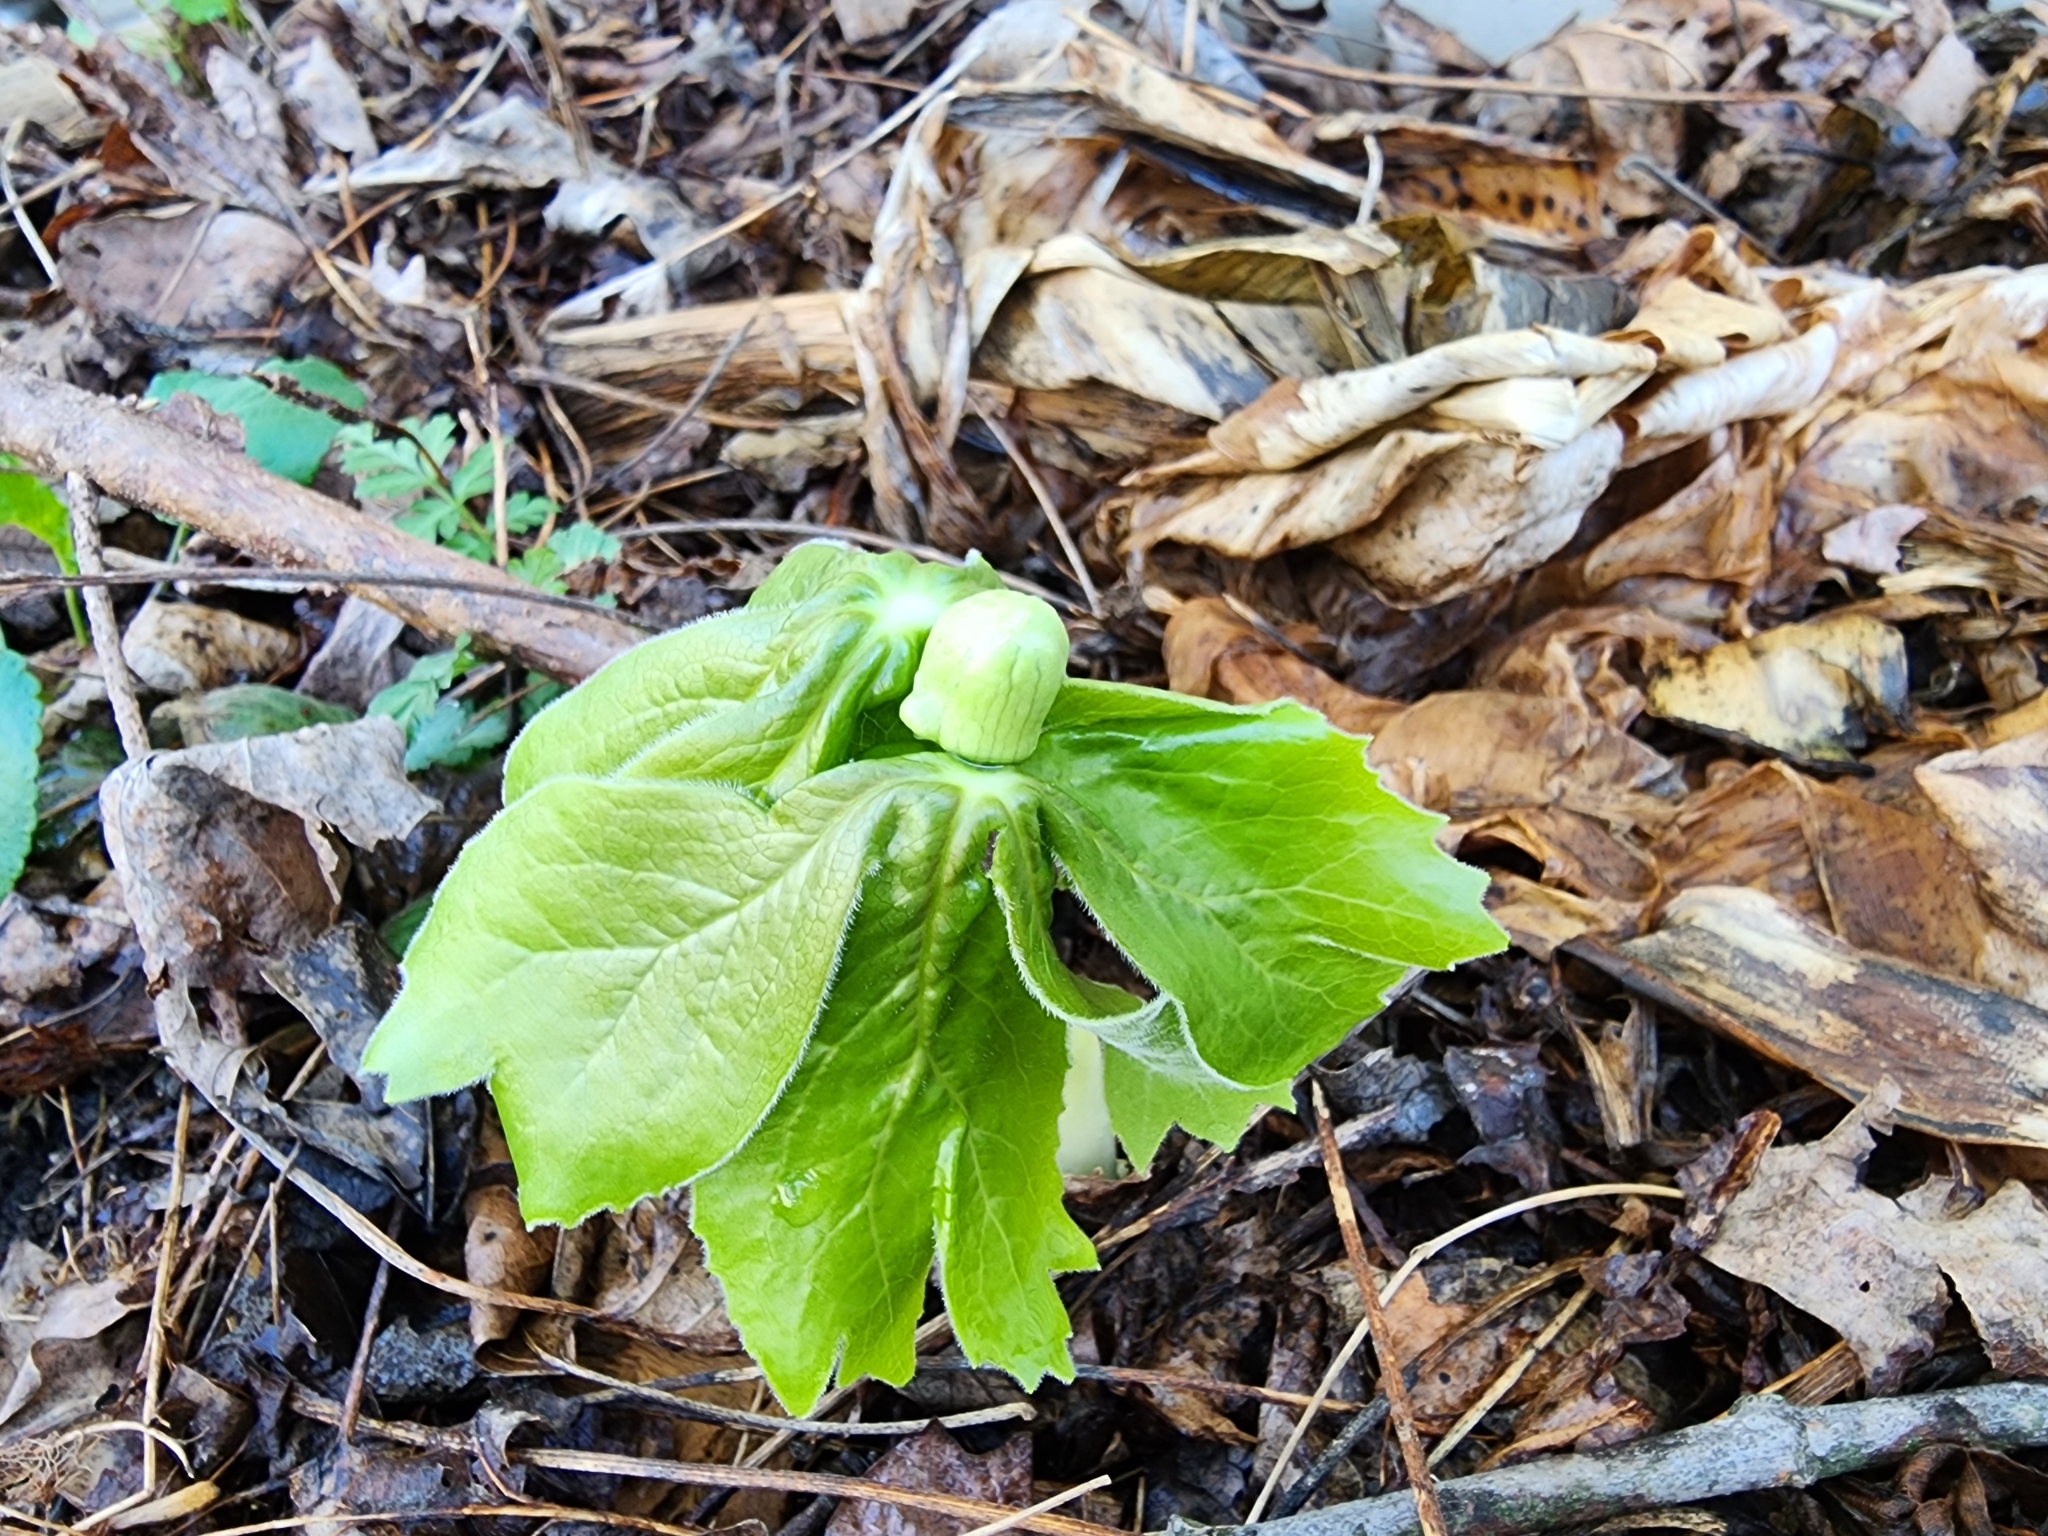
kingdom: Plantae
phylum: Tracheophyta
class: Magnoliopsida
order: Ranunculales
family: Berberidaceae
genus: Podophyllum
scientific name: Podophyllum peltatum
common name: Wild mandrake
